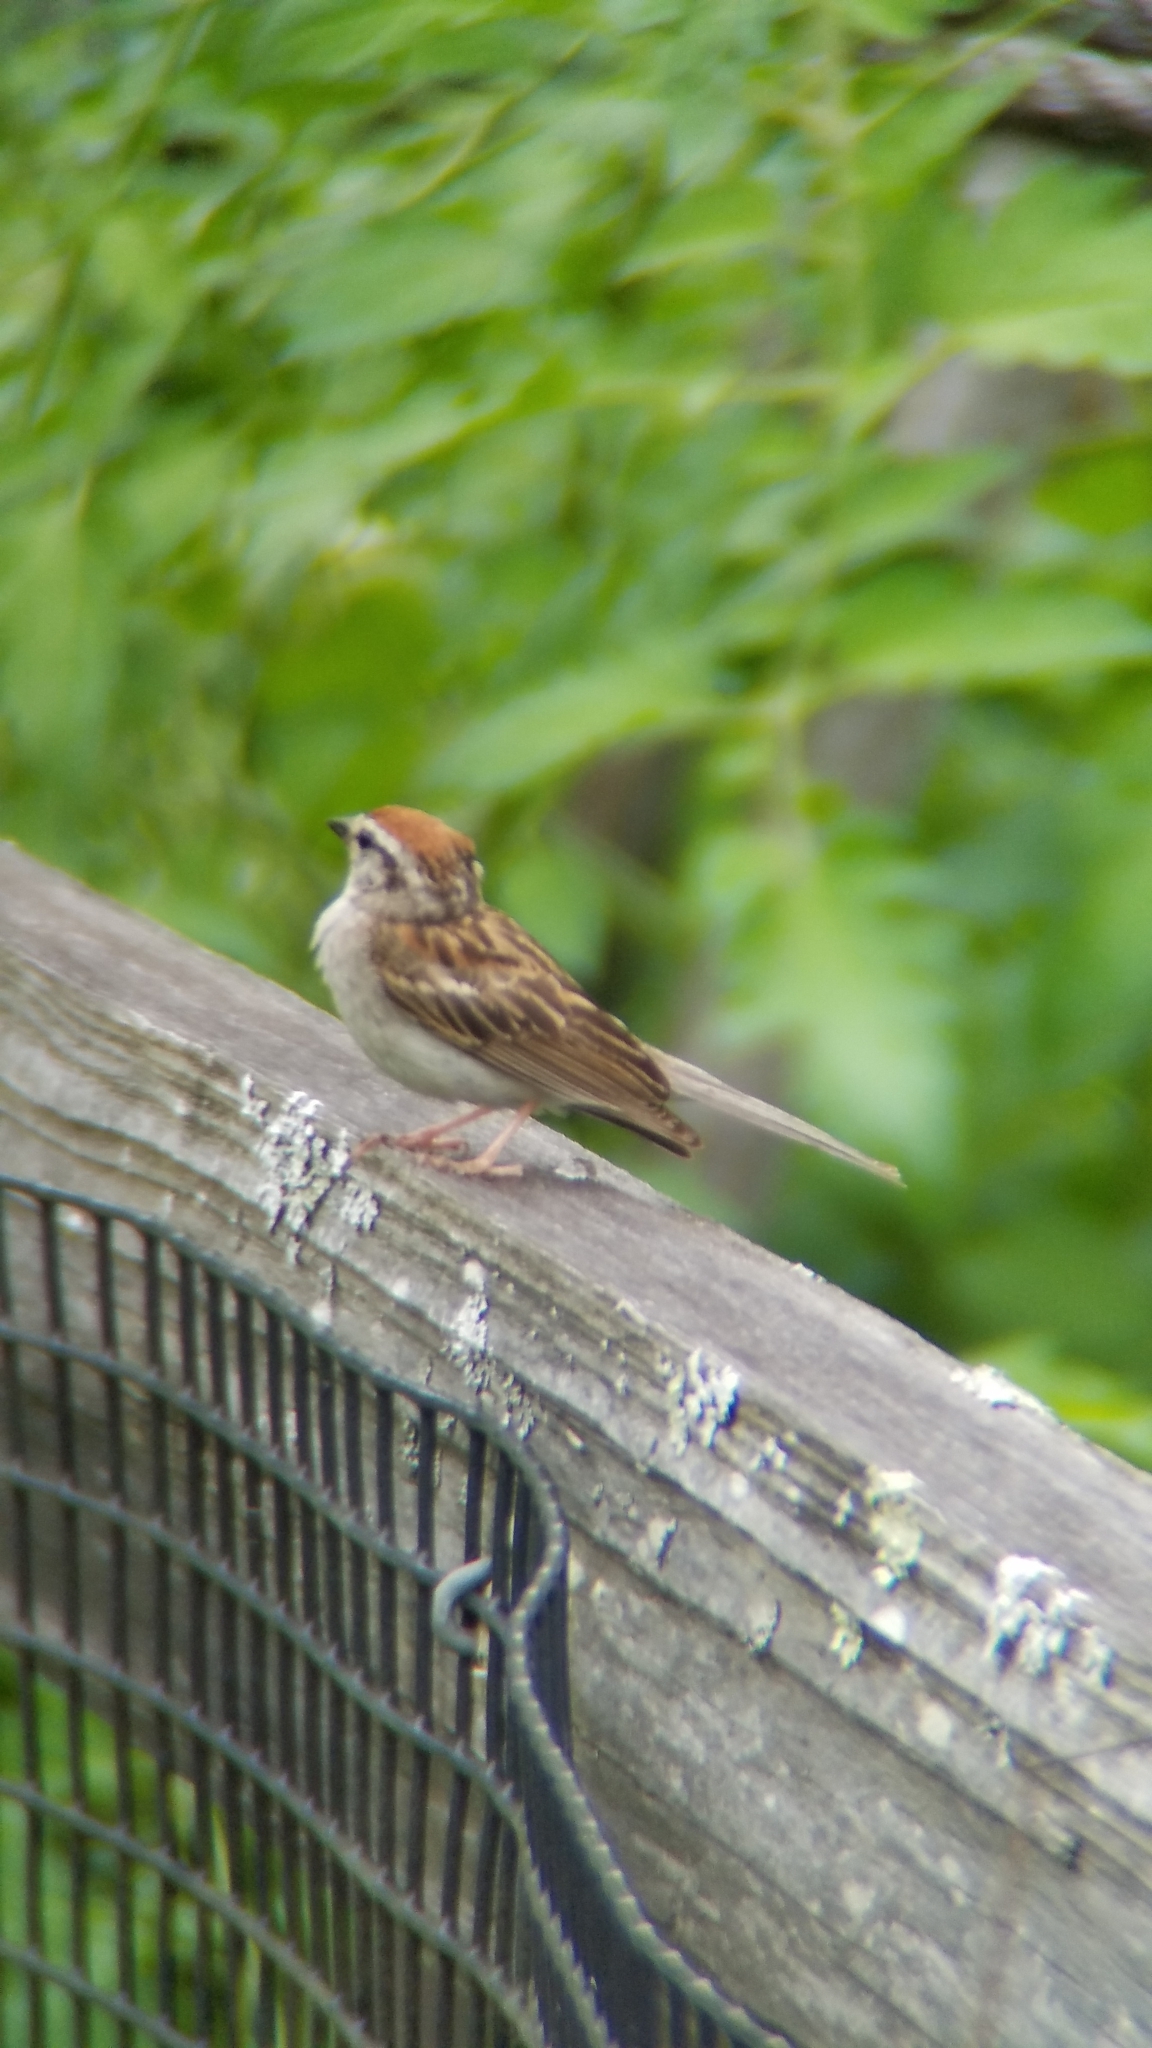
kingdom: Animalia
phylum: Chordata
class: Aves
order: Passeriformes
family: Passerellidae
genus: Spizella
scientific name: Spizella passerina
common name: Chipping sparrow
